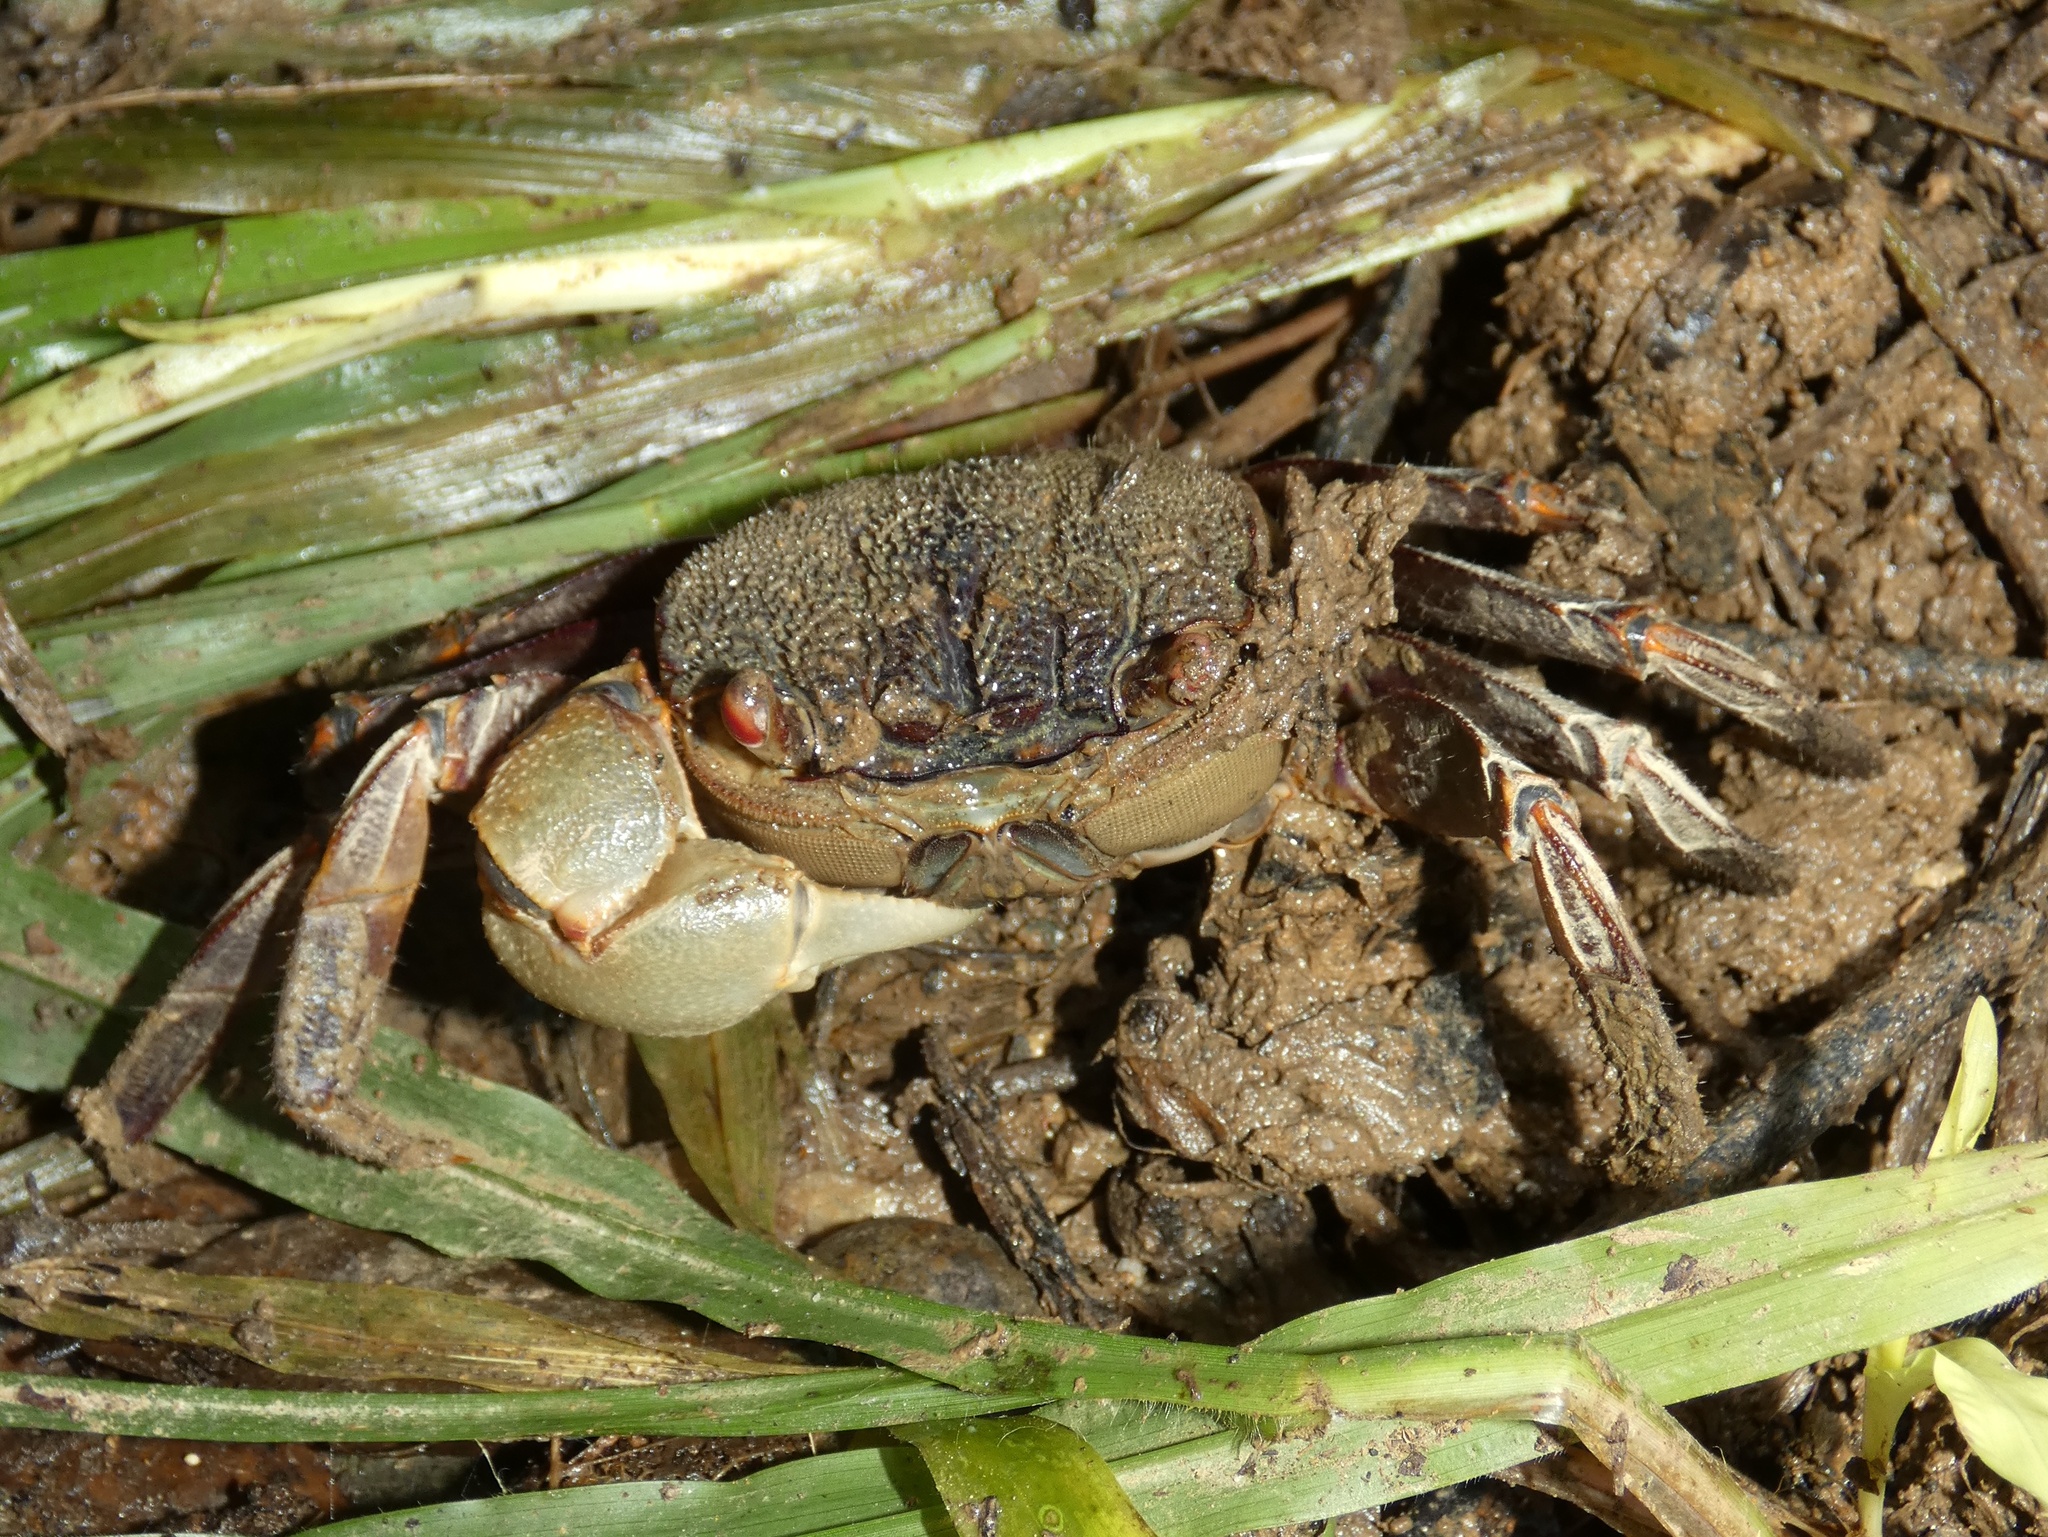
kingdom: Animalia
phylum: Arthropoda
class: Malacostraca
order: Decapoda
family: Sesarmidae
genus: Tiomanium
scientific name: Tiomanium indicum
